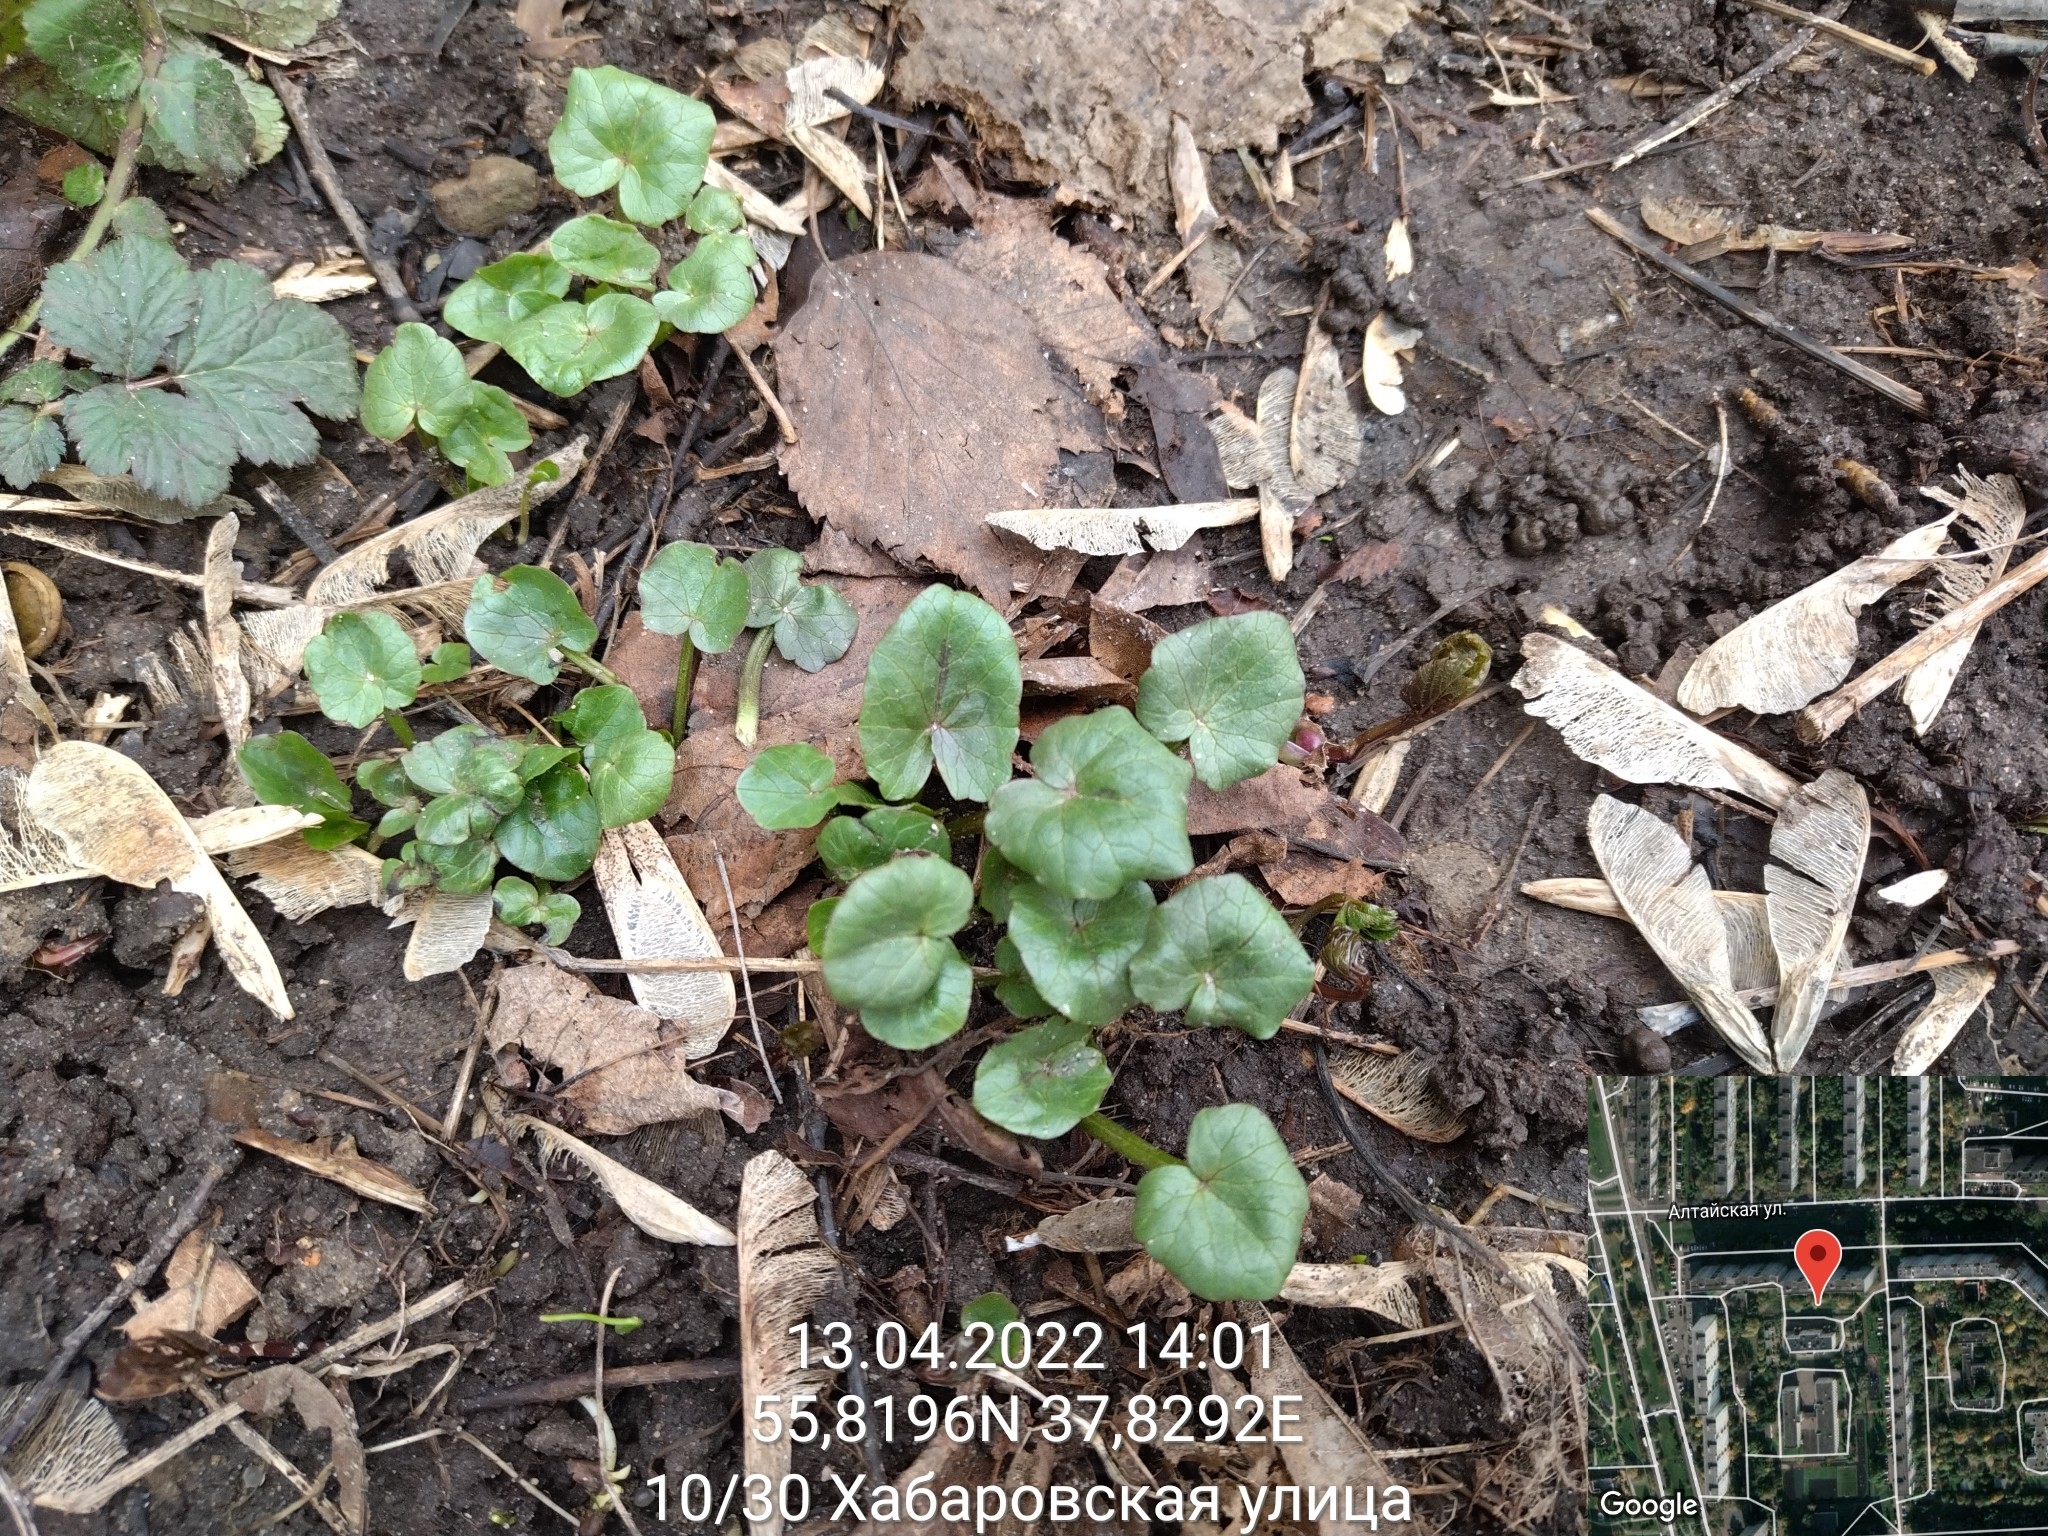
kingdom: Plantae
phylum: Tracheophyta
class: Magnoliopsida
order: Ranunculales
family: Ranunculaceae
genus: Ficaria
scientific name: Ficaria verna
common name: Lesser celandine
